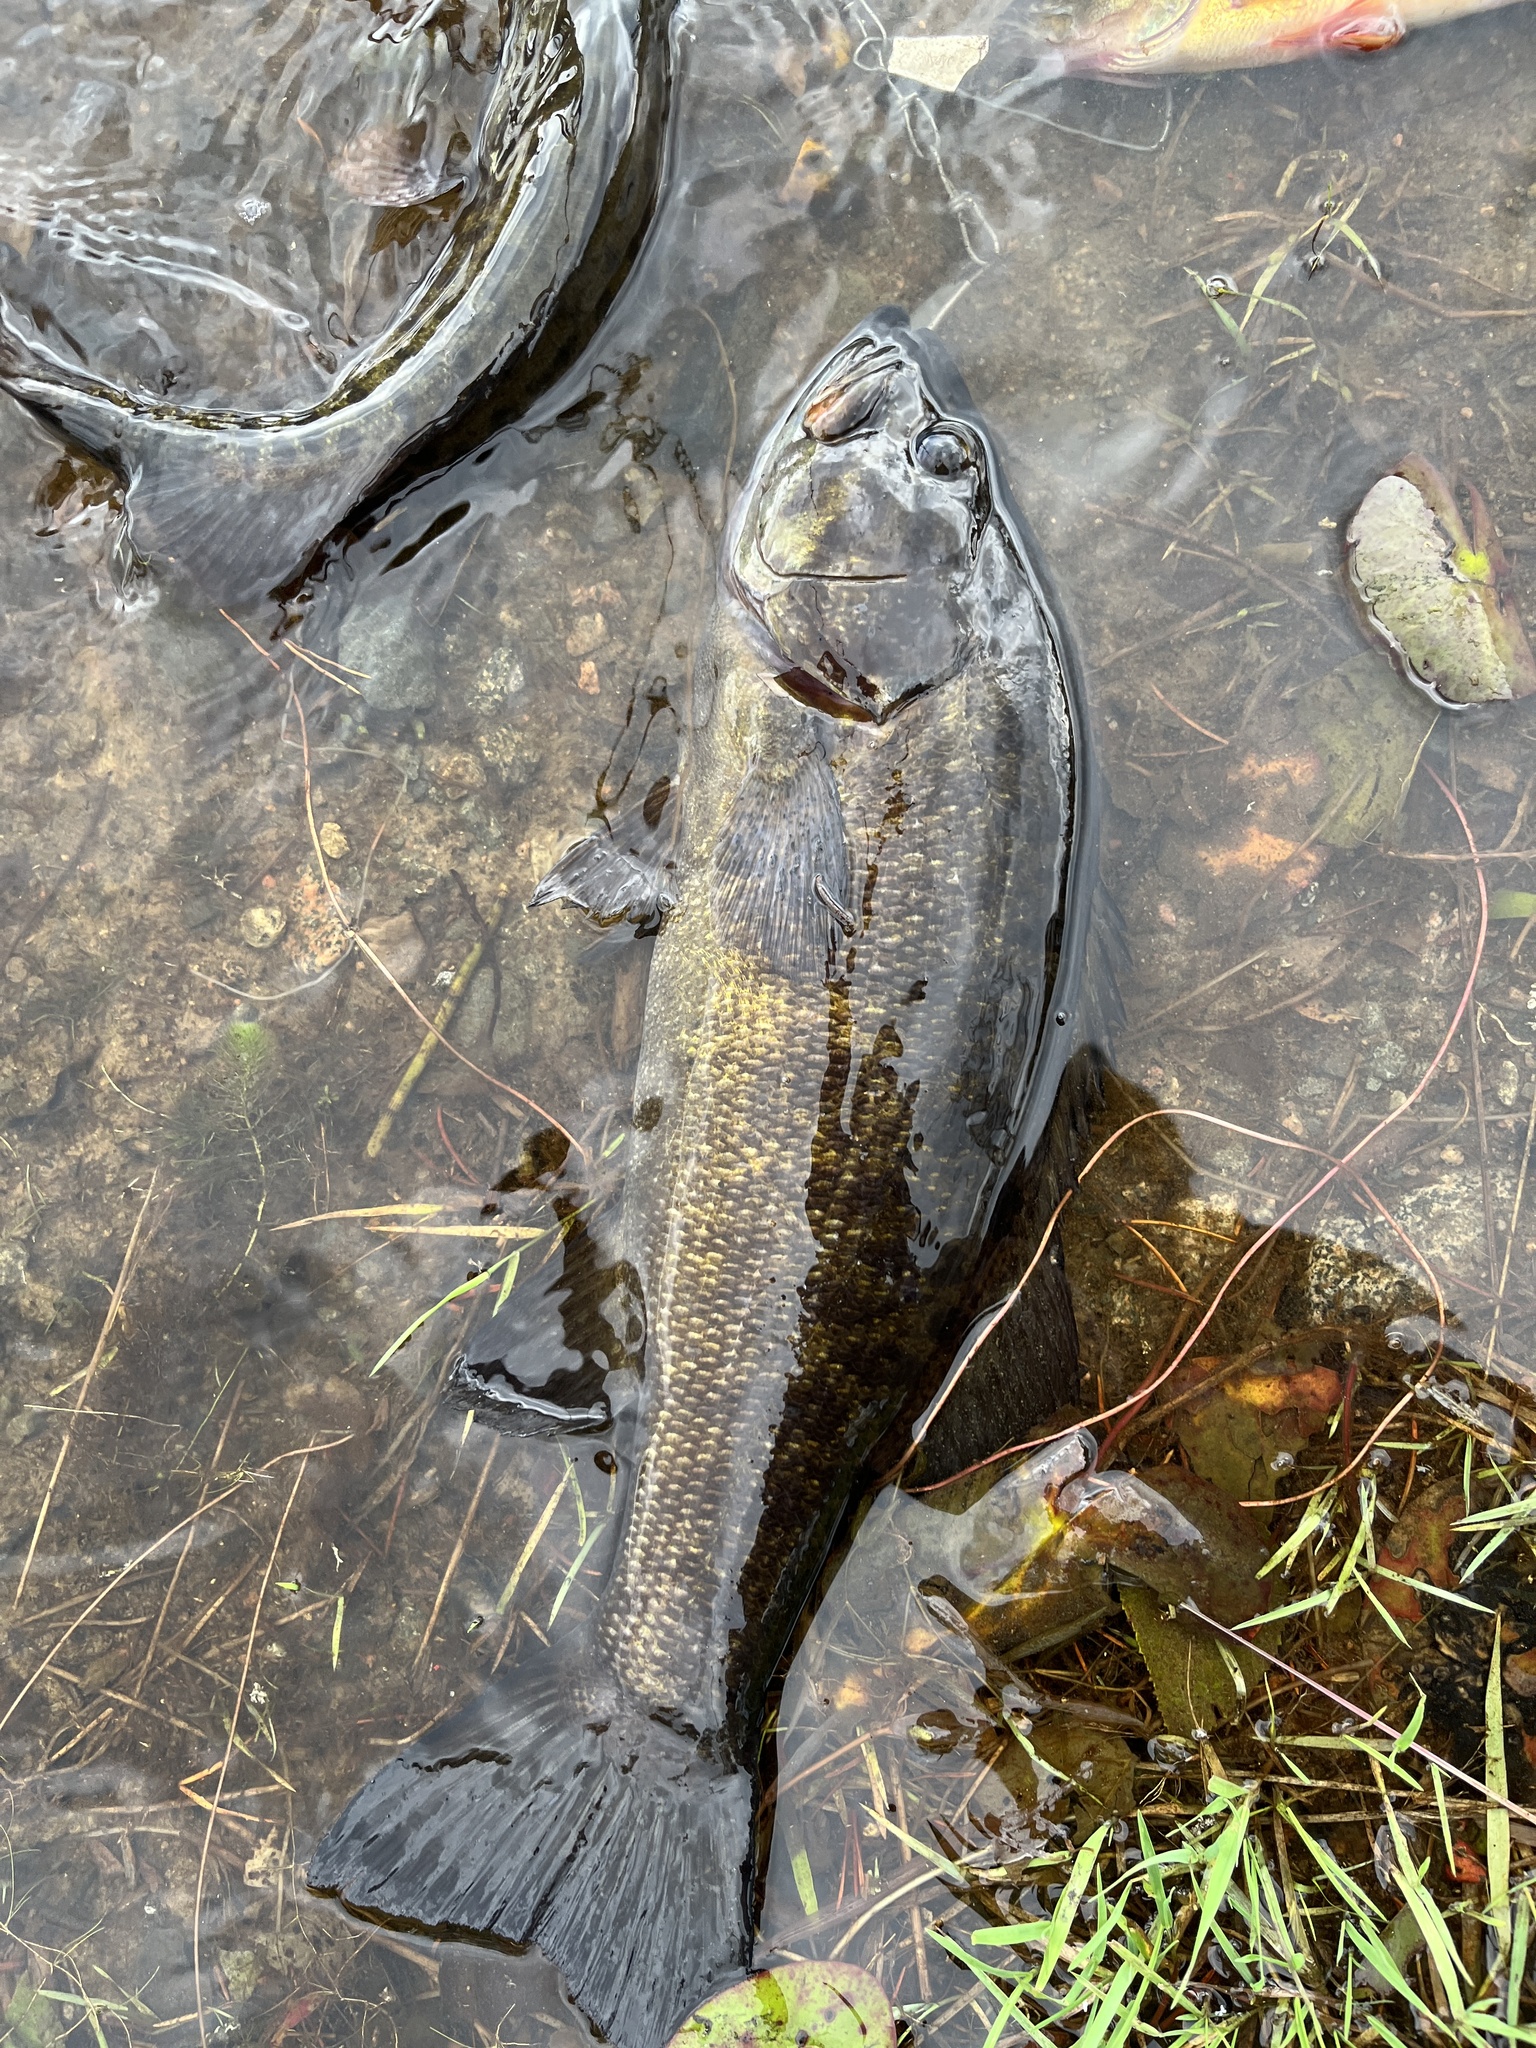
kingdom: Animalia
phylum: Chordata
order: Perciformes
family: Centrarchidae
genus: Micropterus
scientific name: Micropterus dolomieu
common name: Smallmouth bass
